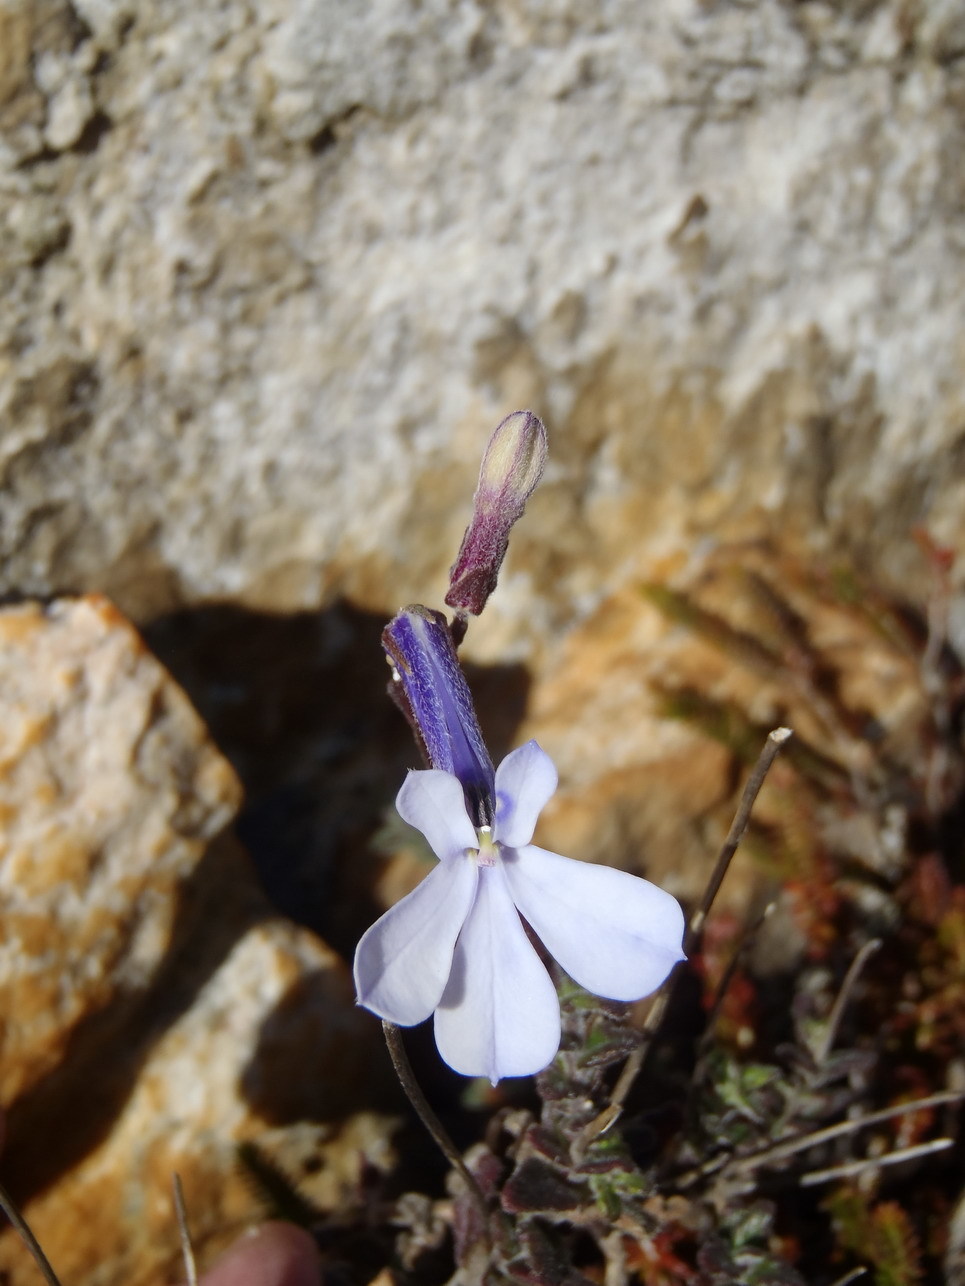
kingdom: Plantae
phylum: Tracheophyta
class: Magnoliopsida
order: Asterales
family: Campanulaceae
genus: Lobelia
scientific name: Lobelia dichroma
